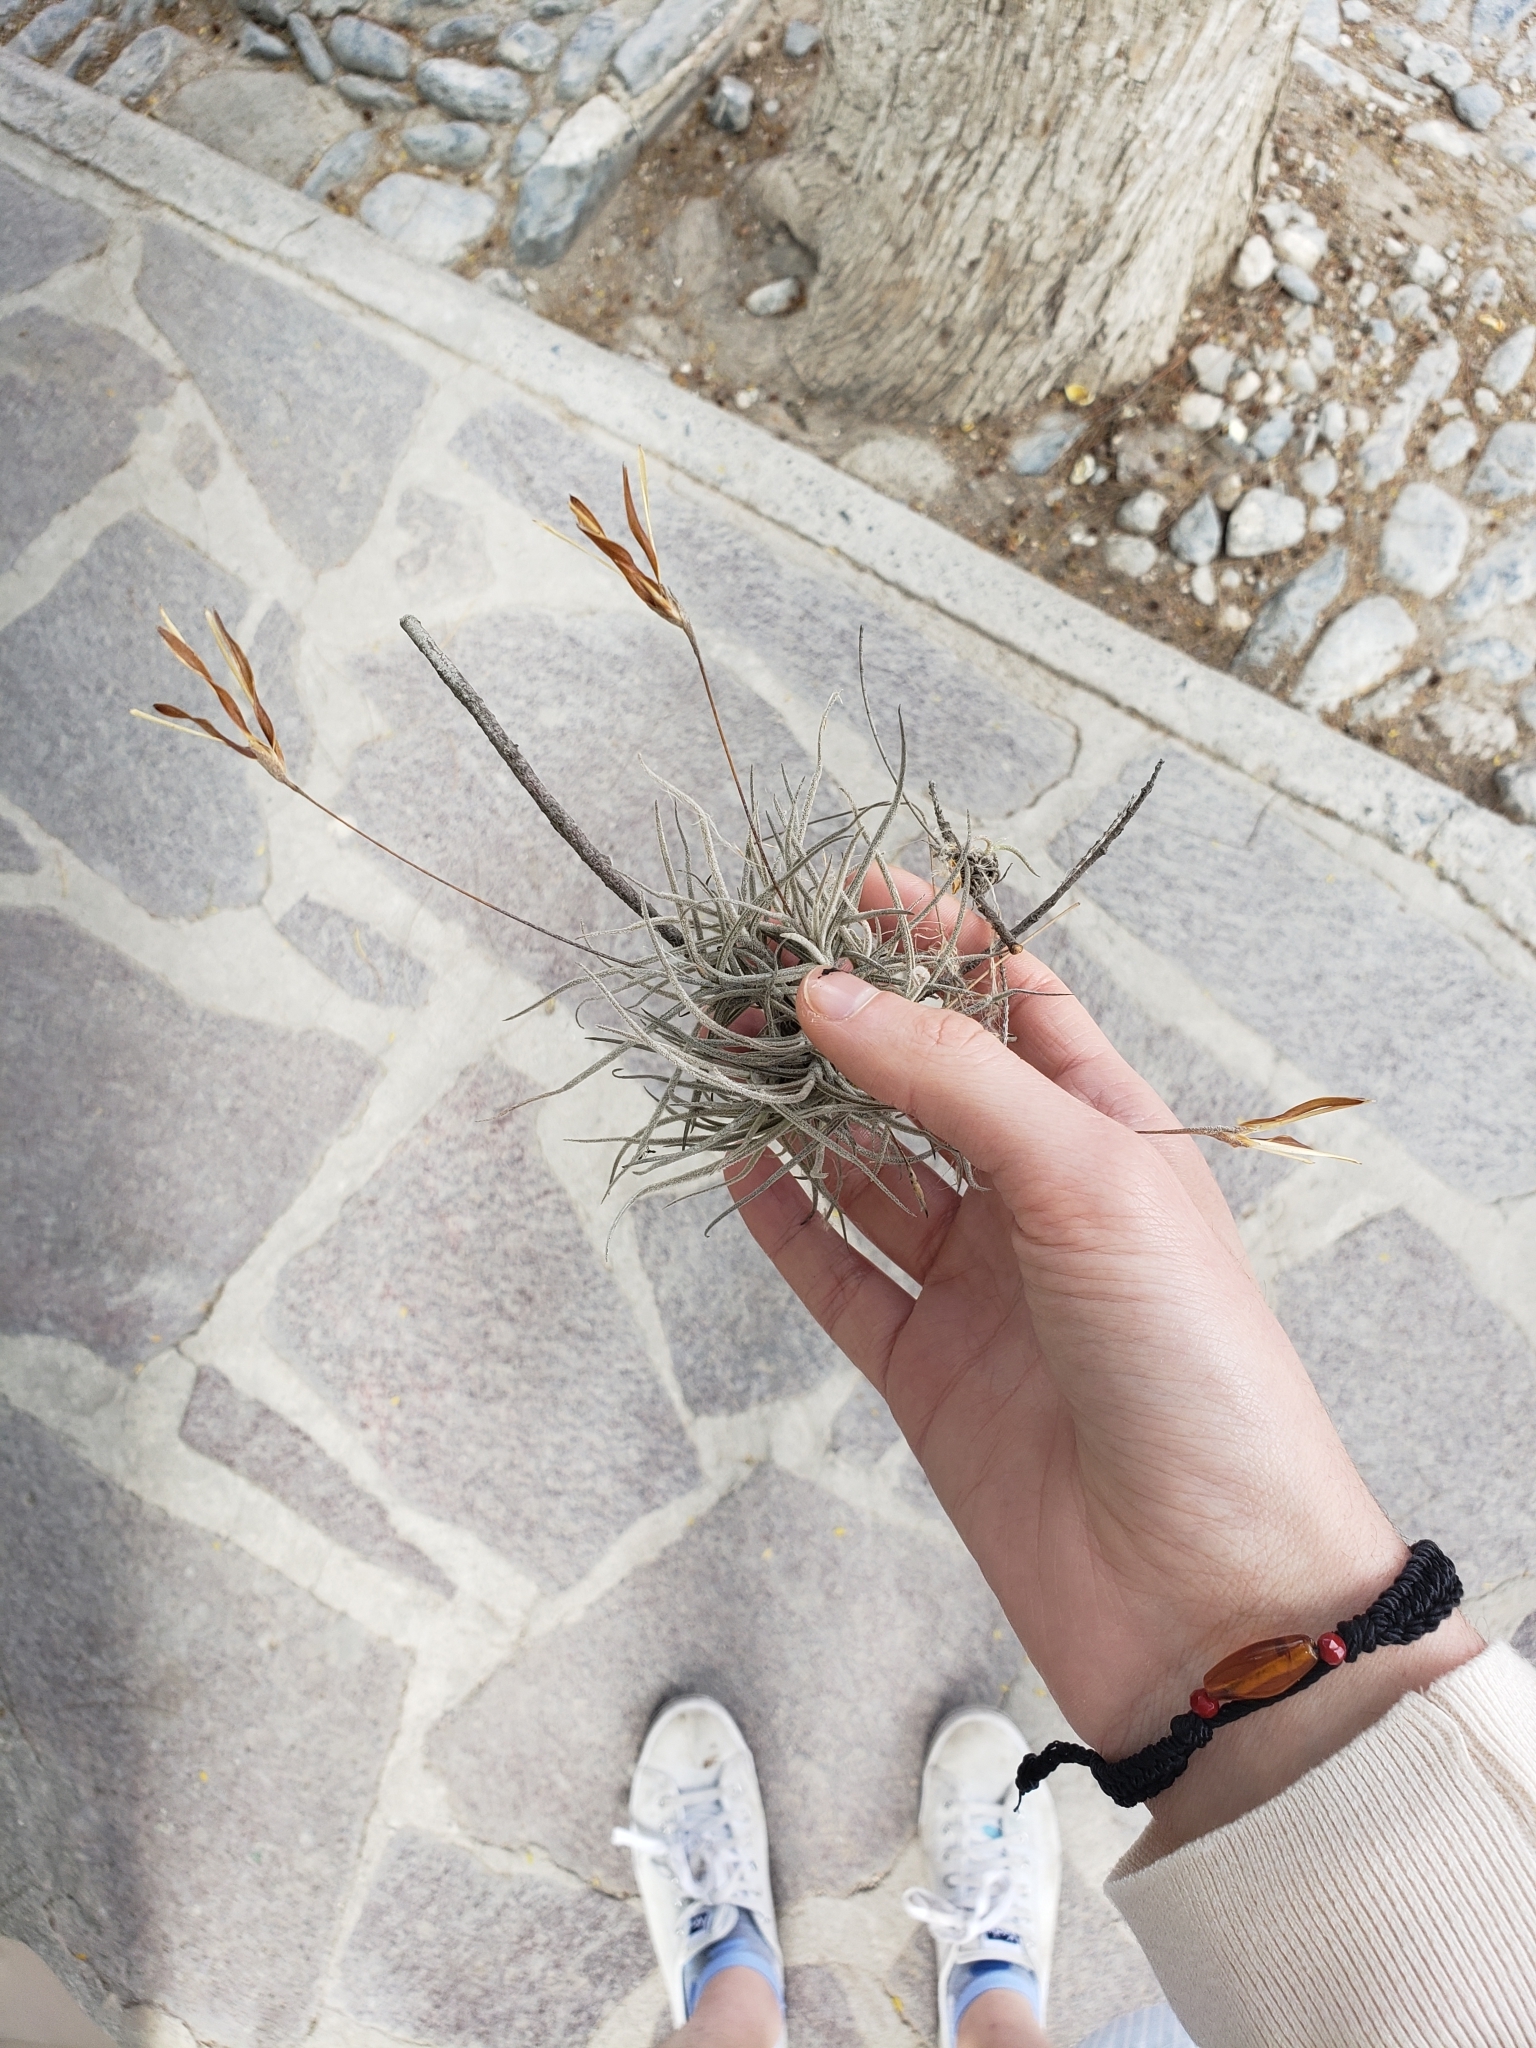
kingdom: Plantae
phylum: Tracheophyta
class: Liliopsida
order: Poales
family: Bromeliaceae
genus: Tillandsia
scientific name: Tillandsia recurvata
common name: Small ballmoss
